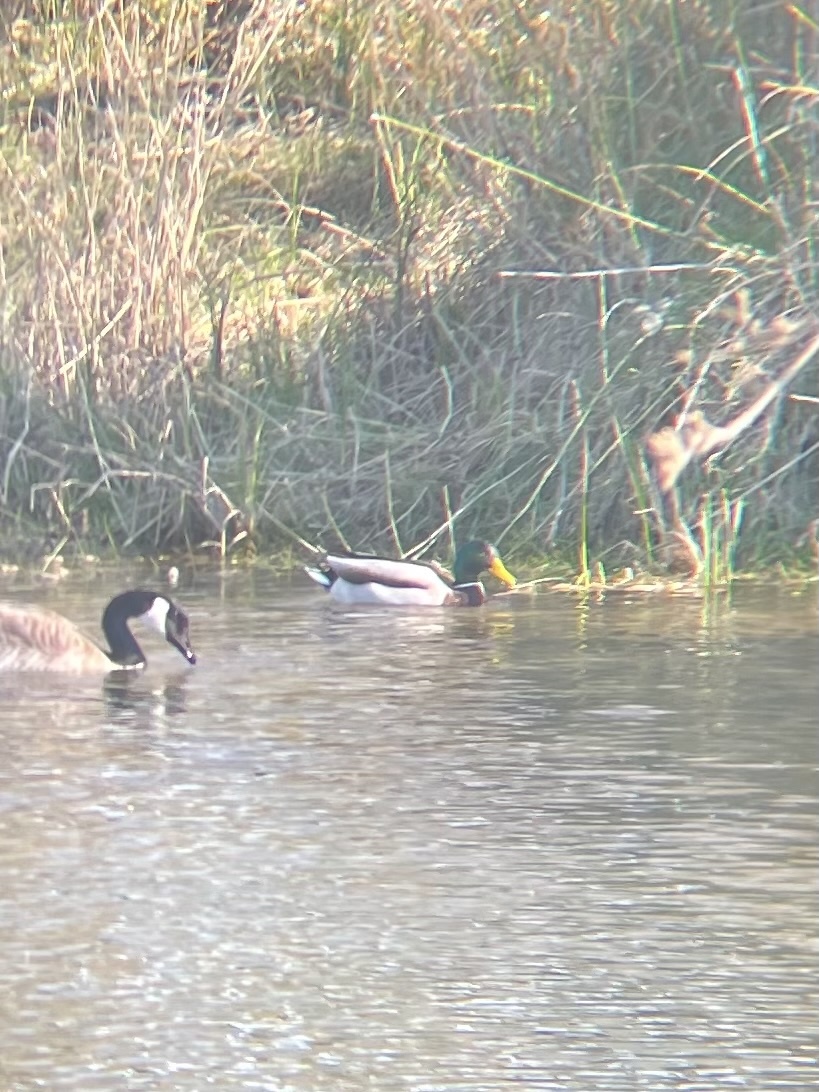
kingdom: Animalia
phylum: Chordata
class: Aves
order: Anseriformes
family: Anatidae
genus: Anas
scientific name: Anas platyrhynchos
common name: Mallard
